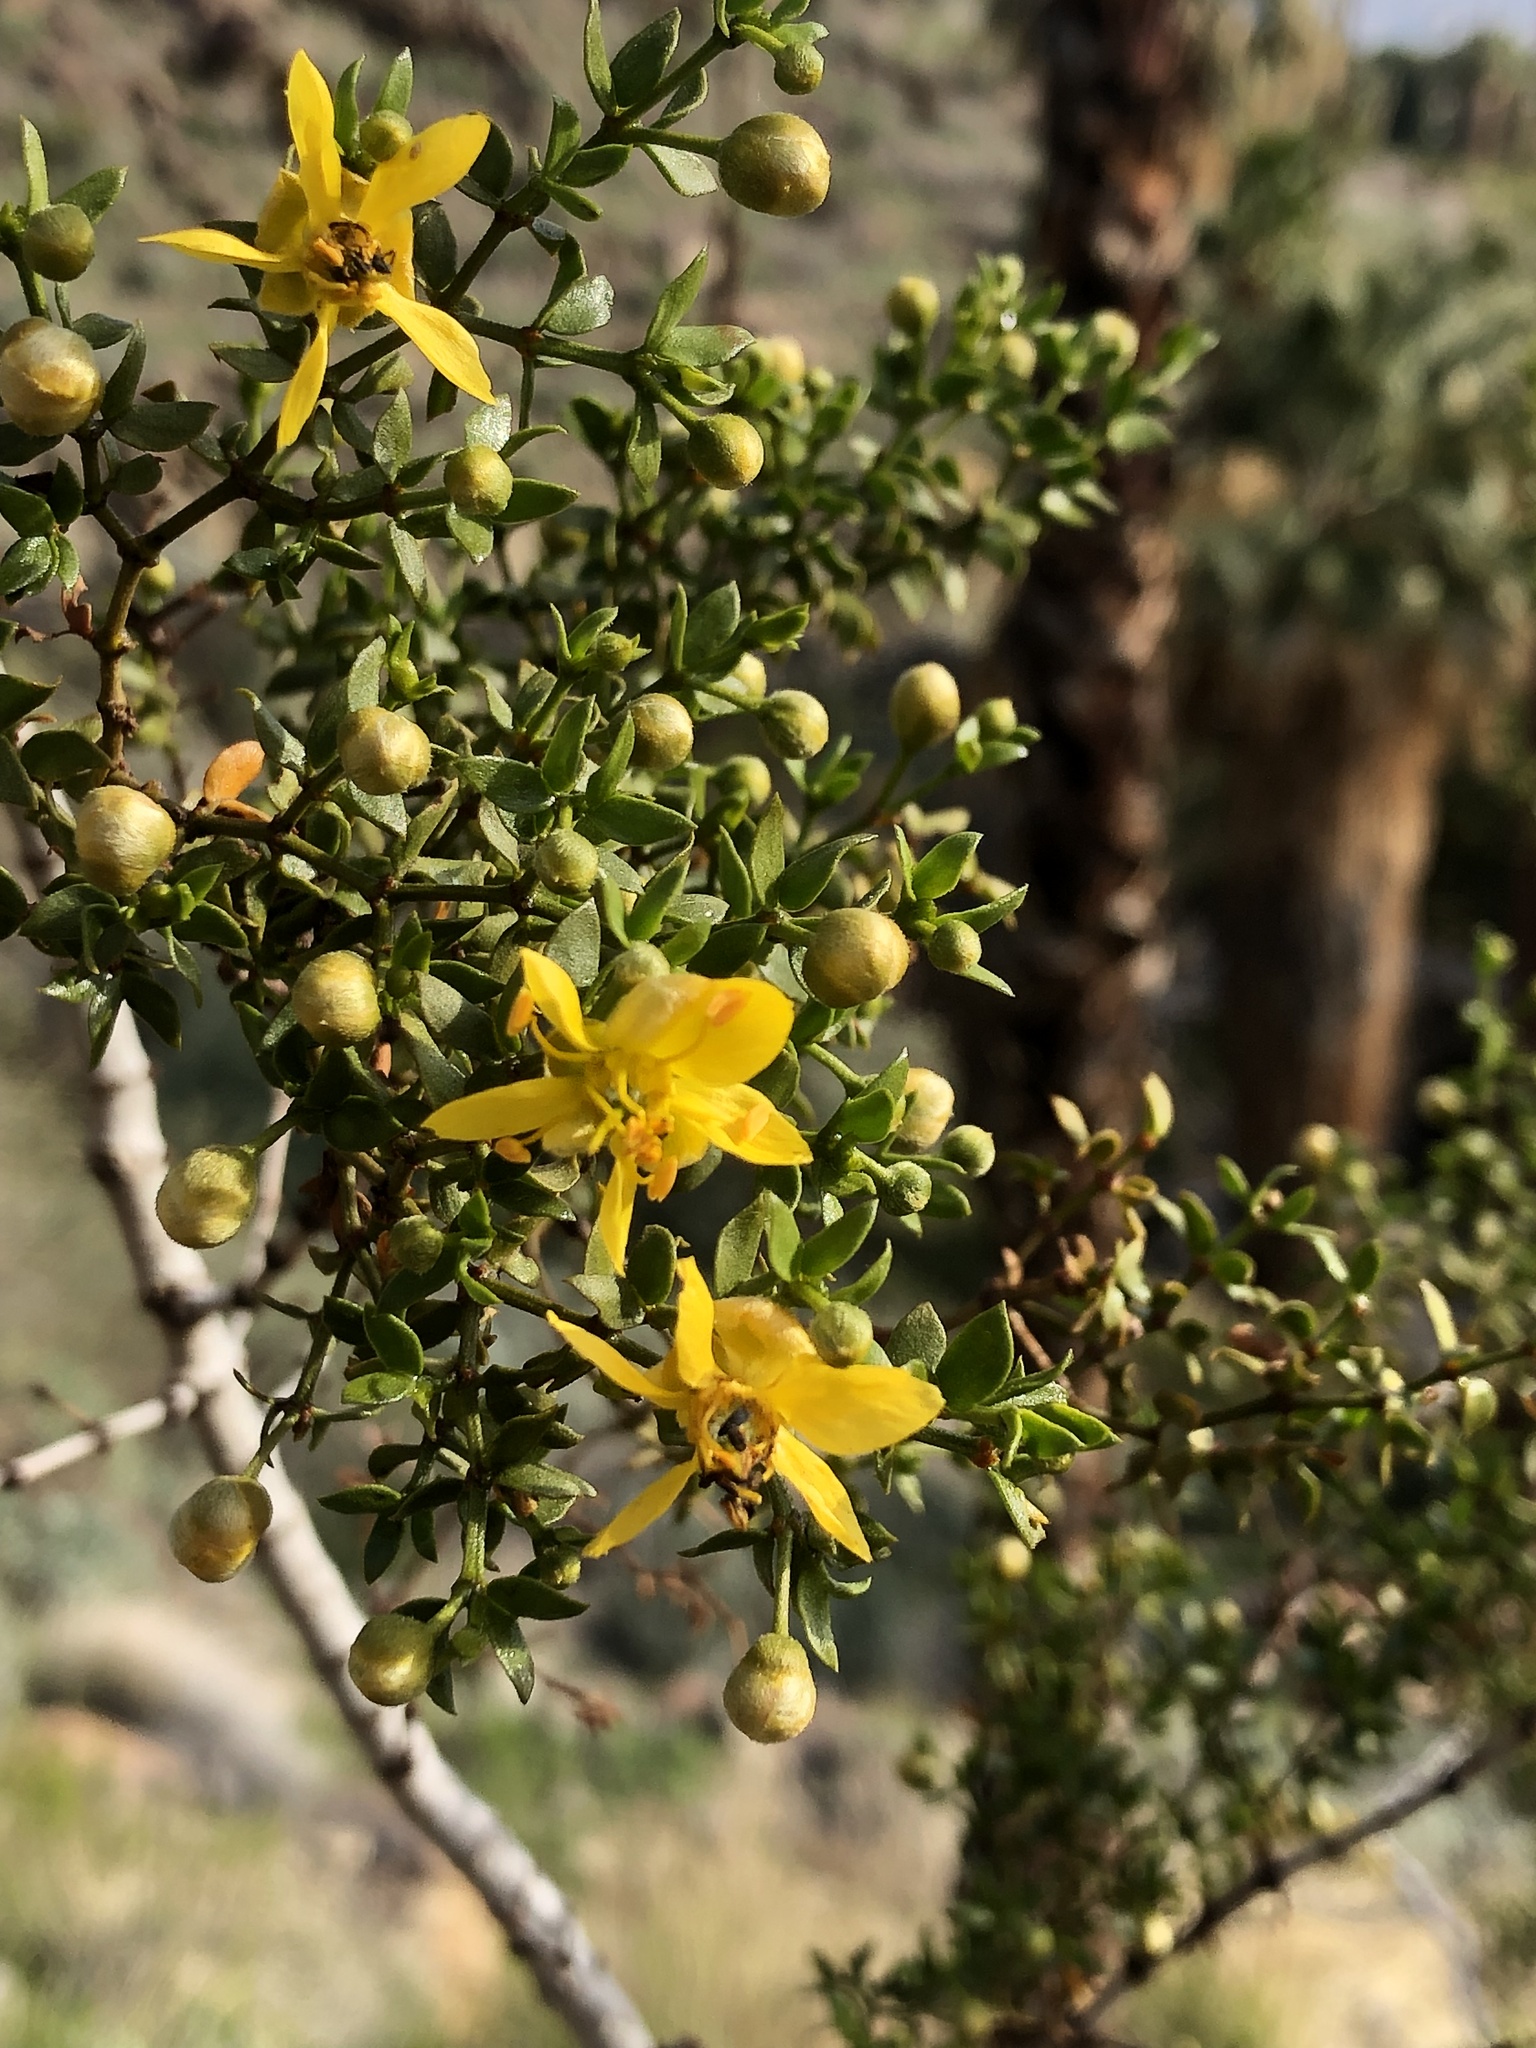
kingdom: Plantae
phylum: Tracheophyta
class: Magnoliopsida
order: Zygophyllales
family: Zygophyllaceae
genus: Larrea
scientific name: Larrea tridentata
